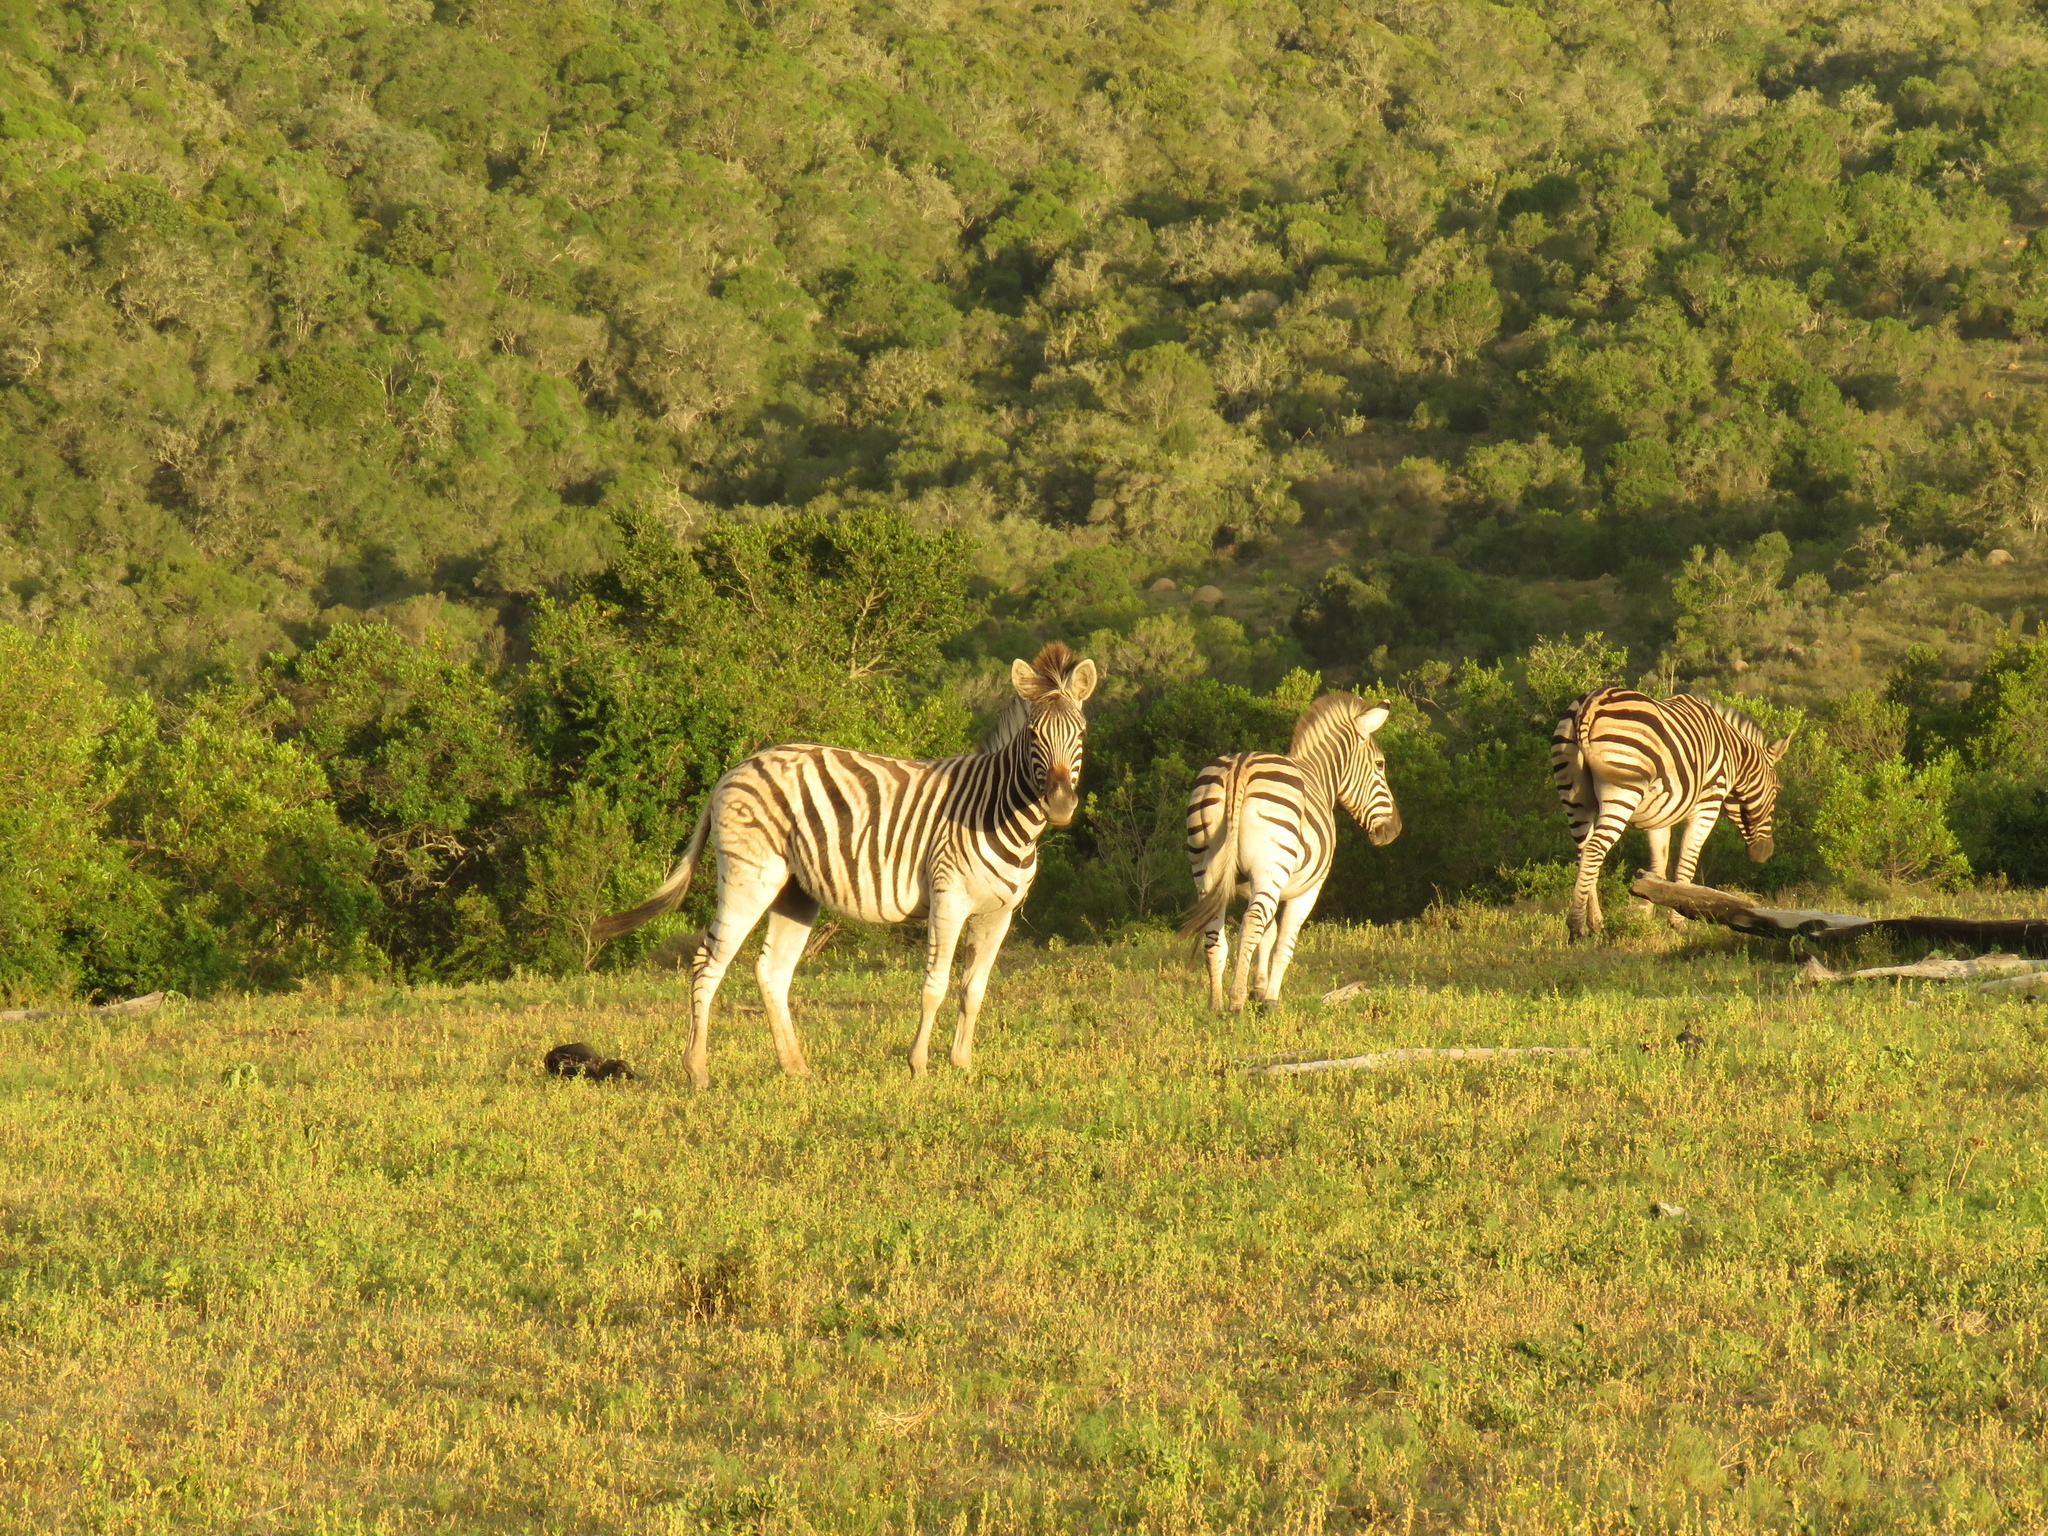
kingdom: Animalia
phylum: Chordata
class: Mammalia
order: Perissodactyla
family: Equidae
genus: Equus
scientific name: Equus quagga
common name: Plains zebra
